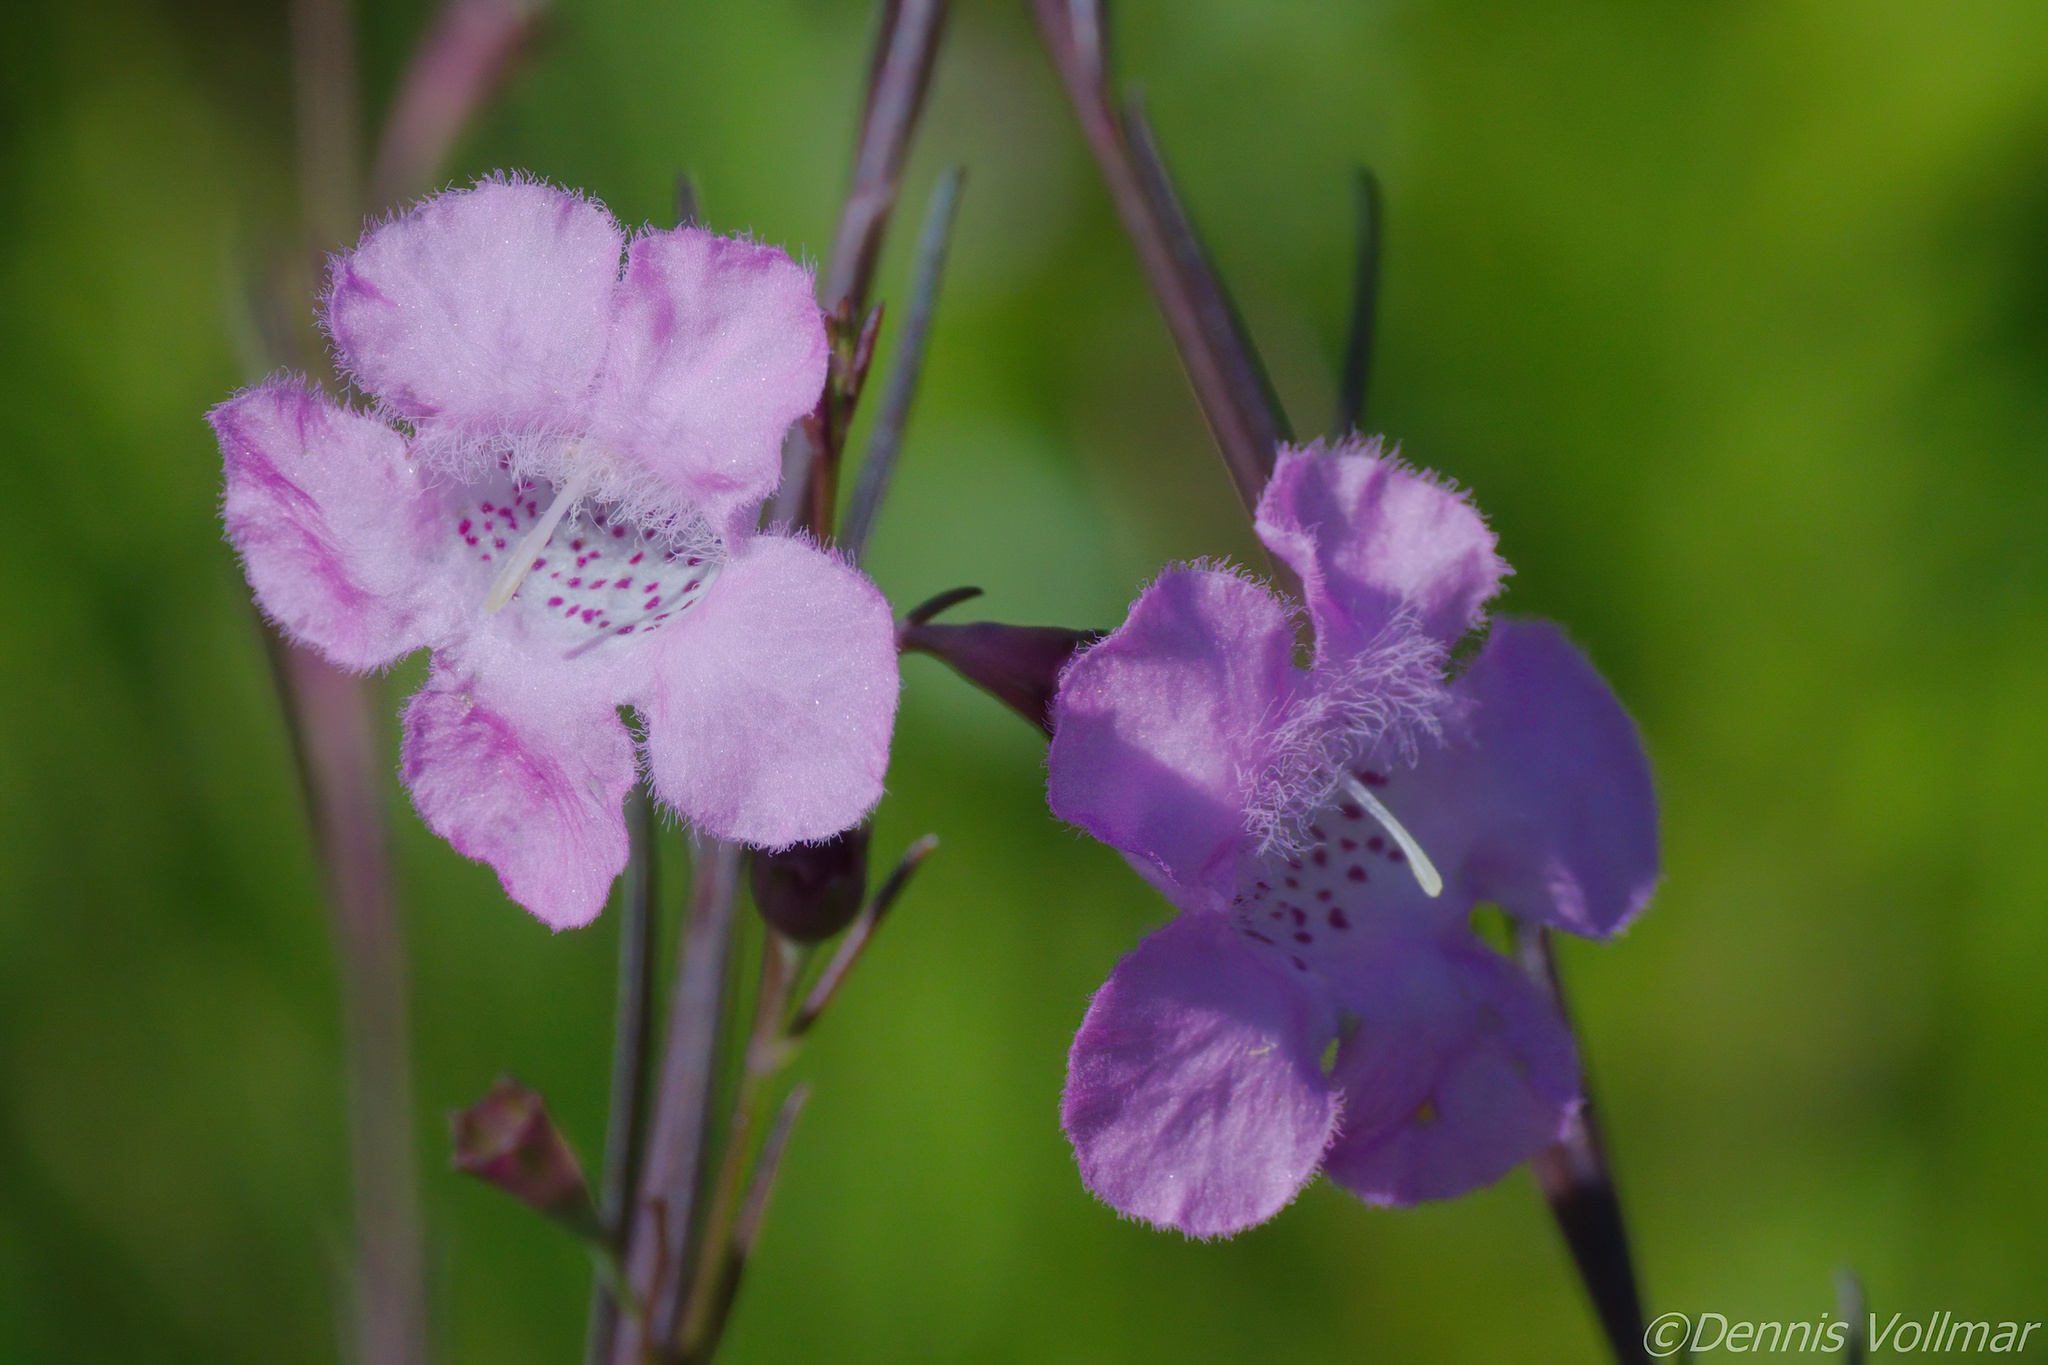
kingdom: Plantae
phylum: Tracheophyta
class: Magnoliopsida
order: Lamiales
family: Orobanchaceae
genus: Agalinis
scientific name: Agalinis linifolia
